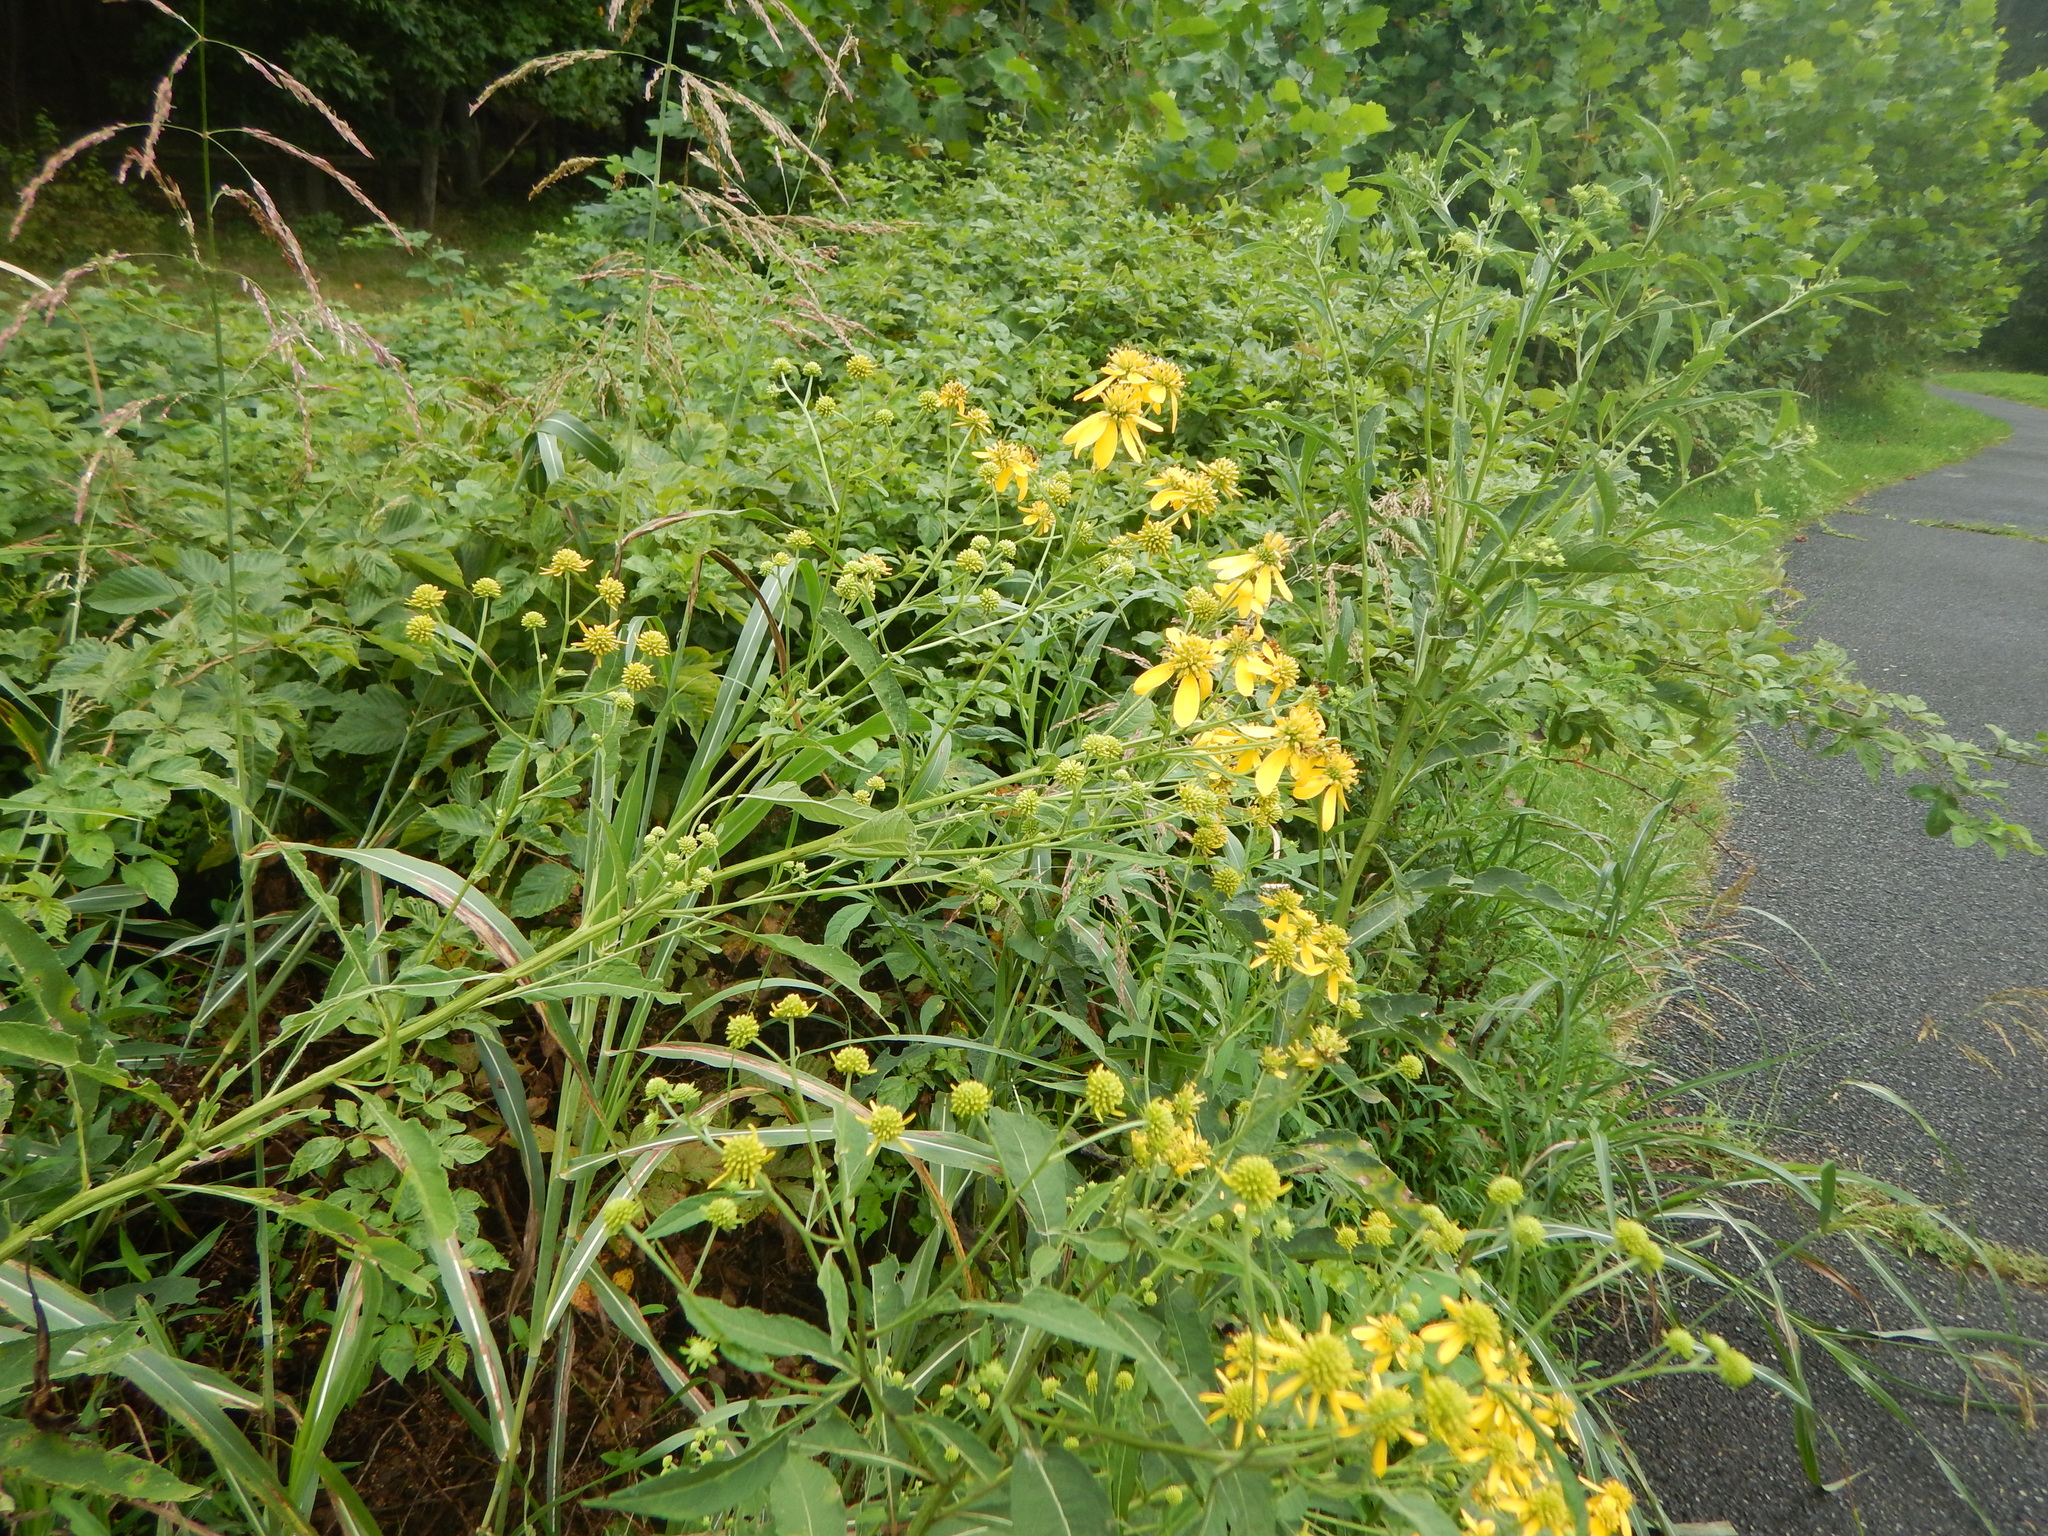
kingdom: Plantae
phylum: Tracheophyta
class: Magnoliopsida
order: Asterales
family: Asteraceae
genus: Verbesina
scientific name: Verbesina alternifolia
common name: Wingstem
